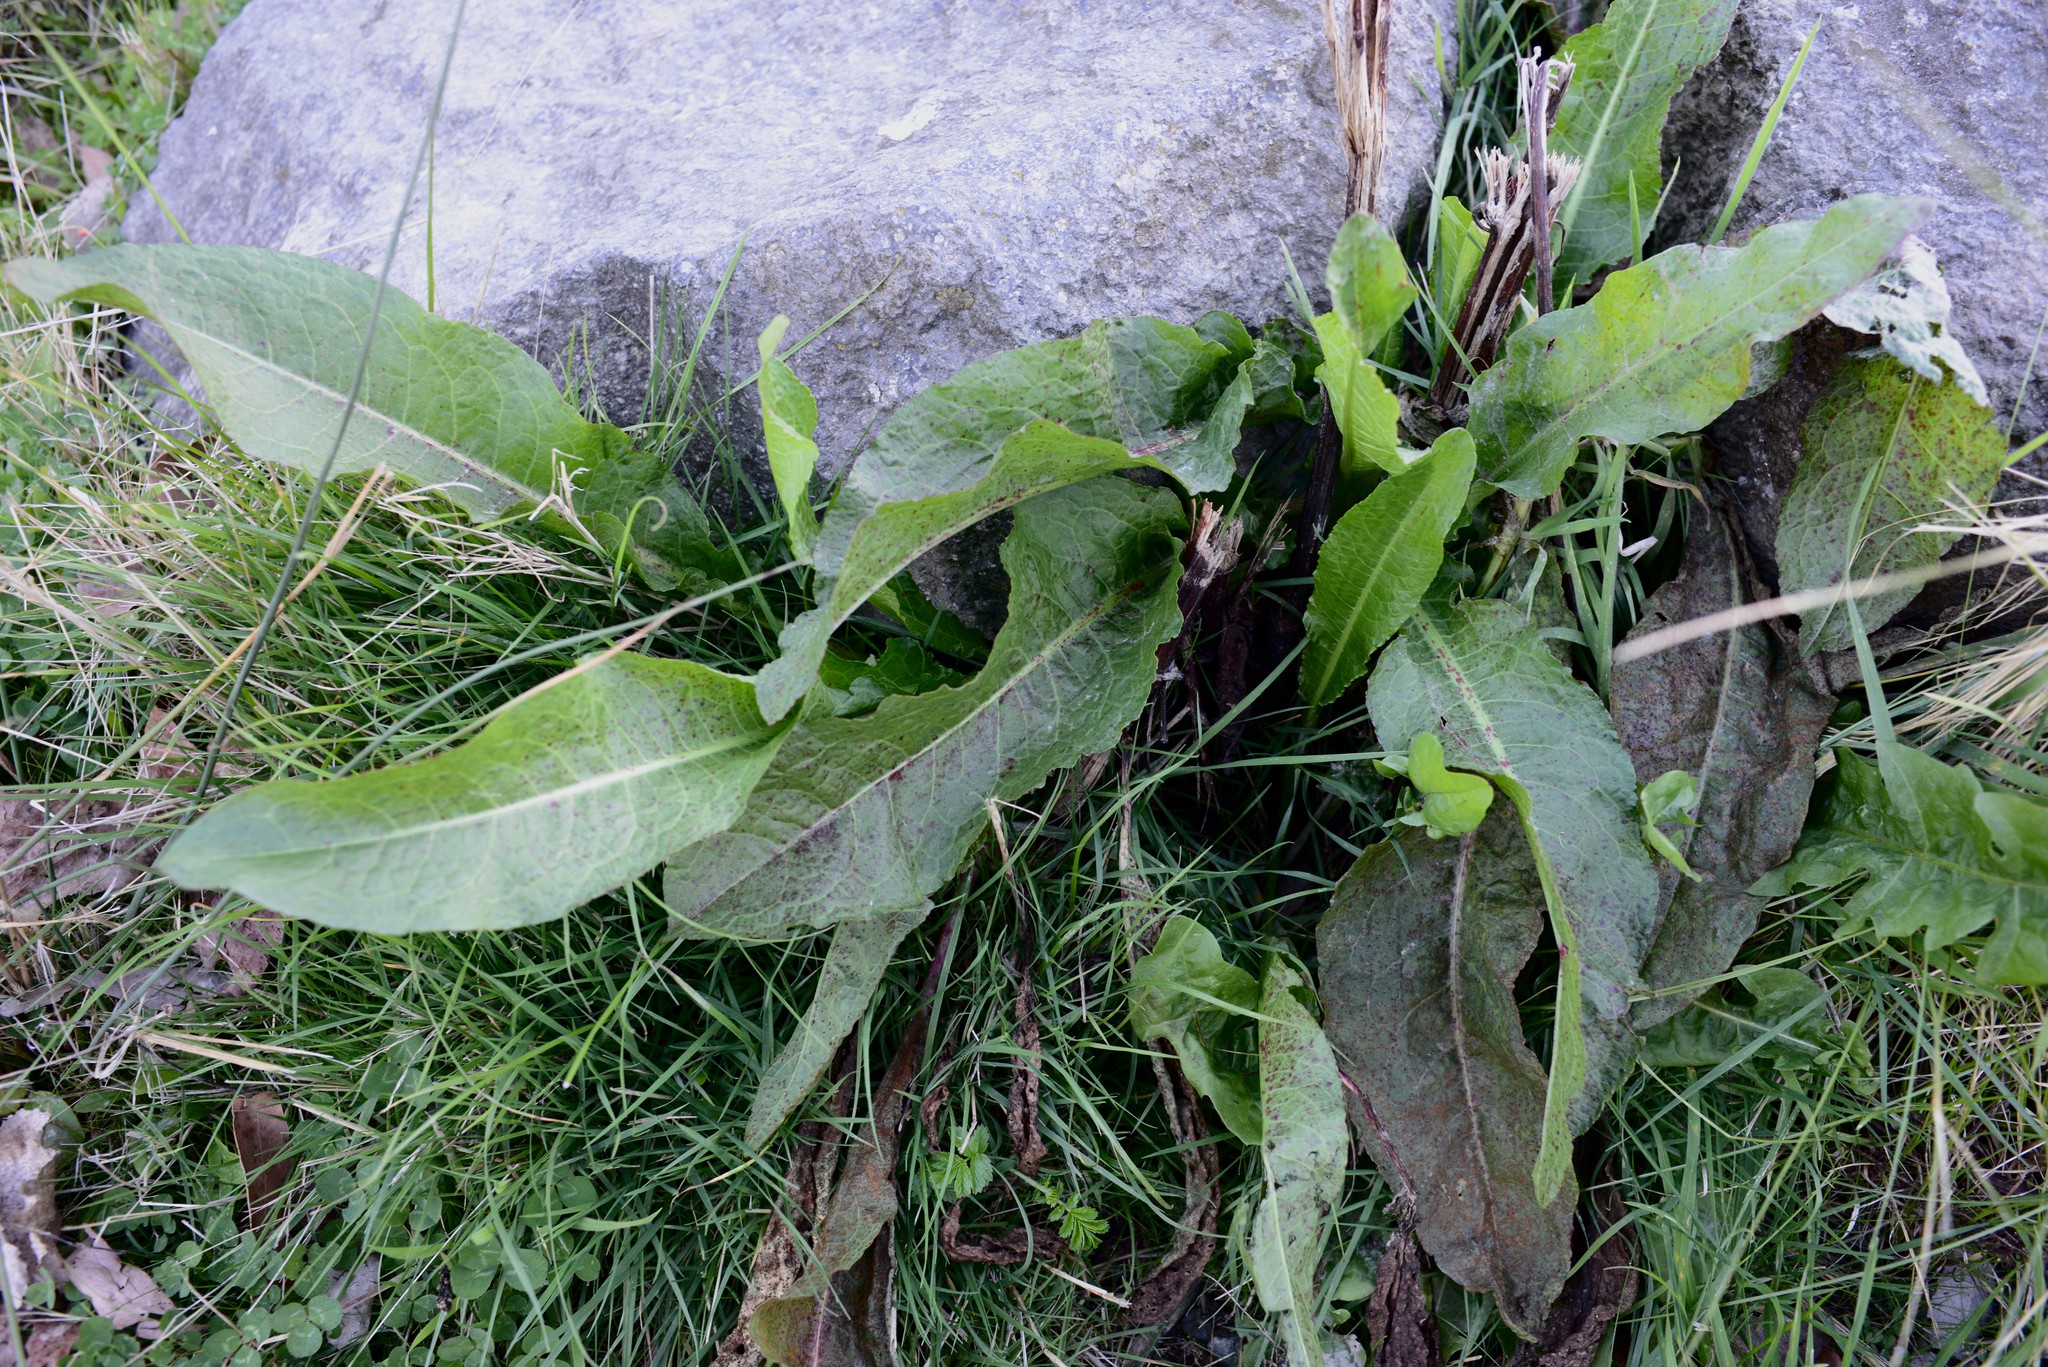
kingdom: Plantae
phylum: Tracheophyta
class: Magnoliopsida
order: Caryophyllales
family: Polygonaceae
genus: Rumex
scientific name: Rumex obtusifolius
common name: Bitter dock
